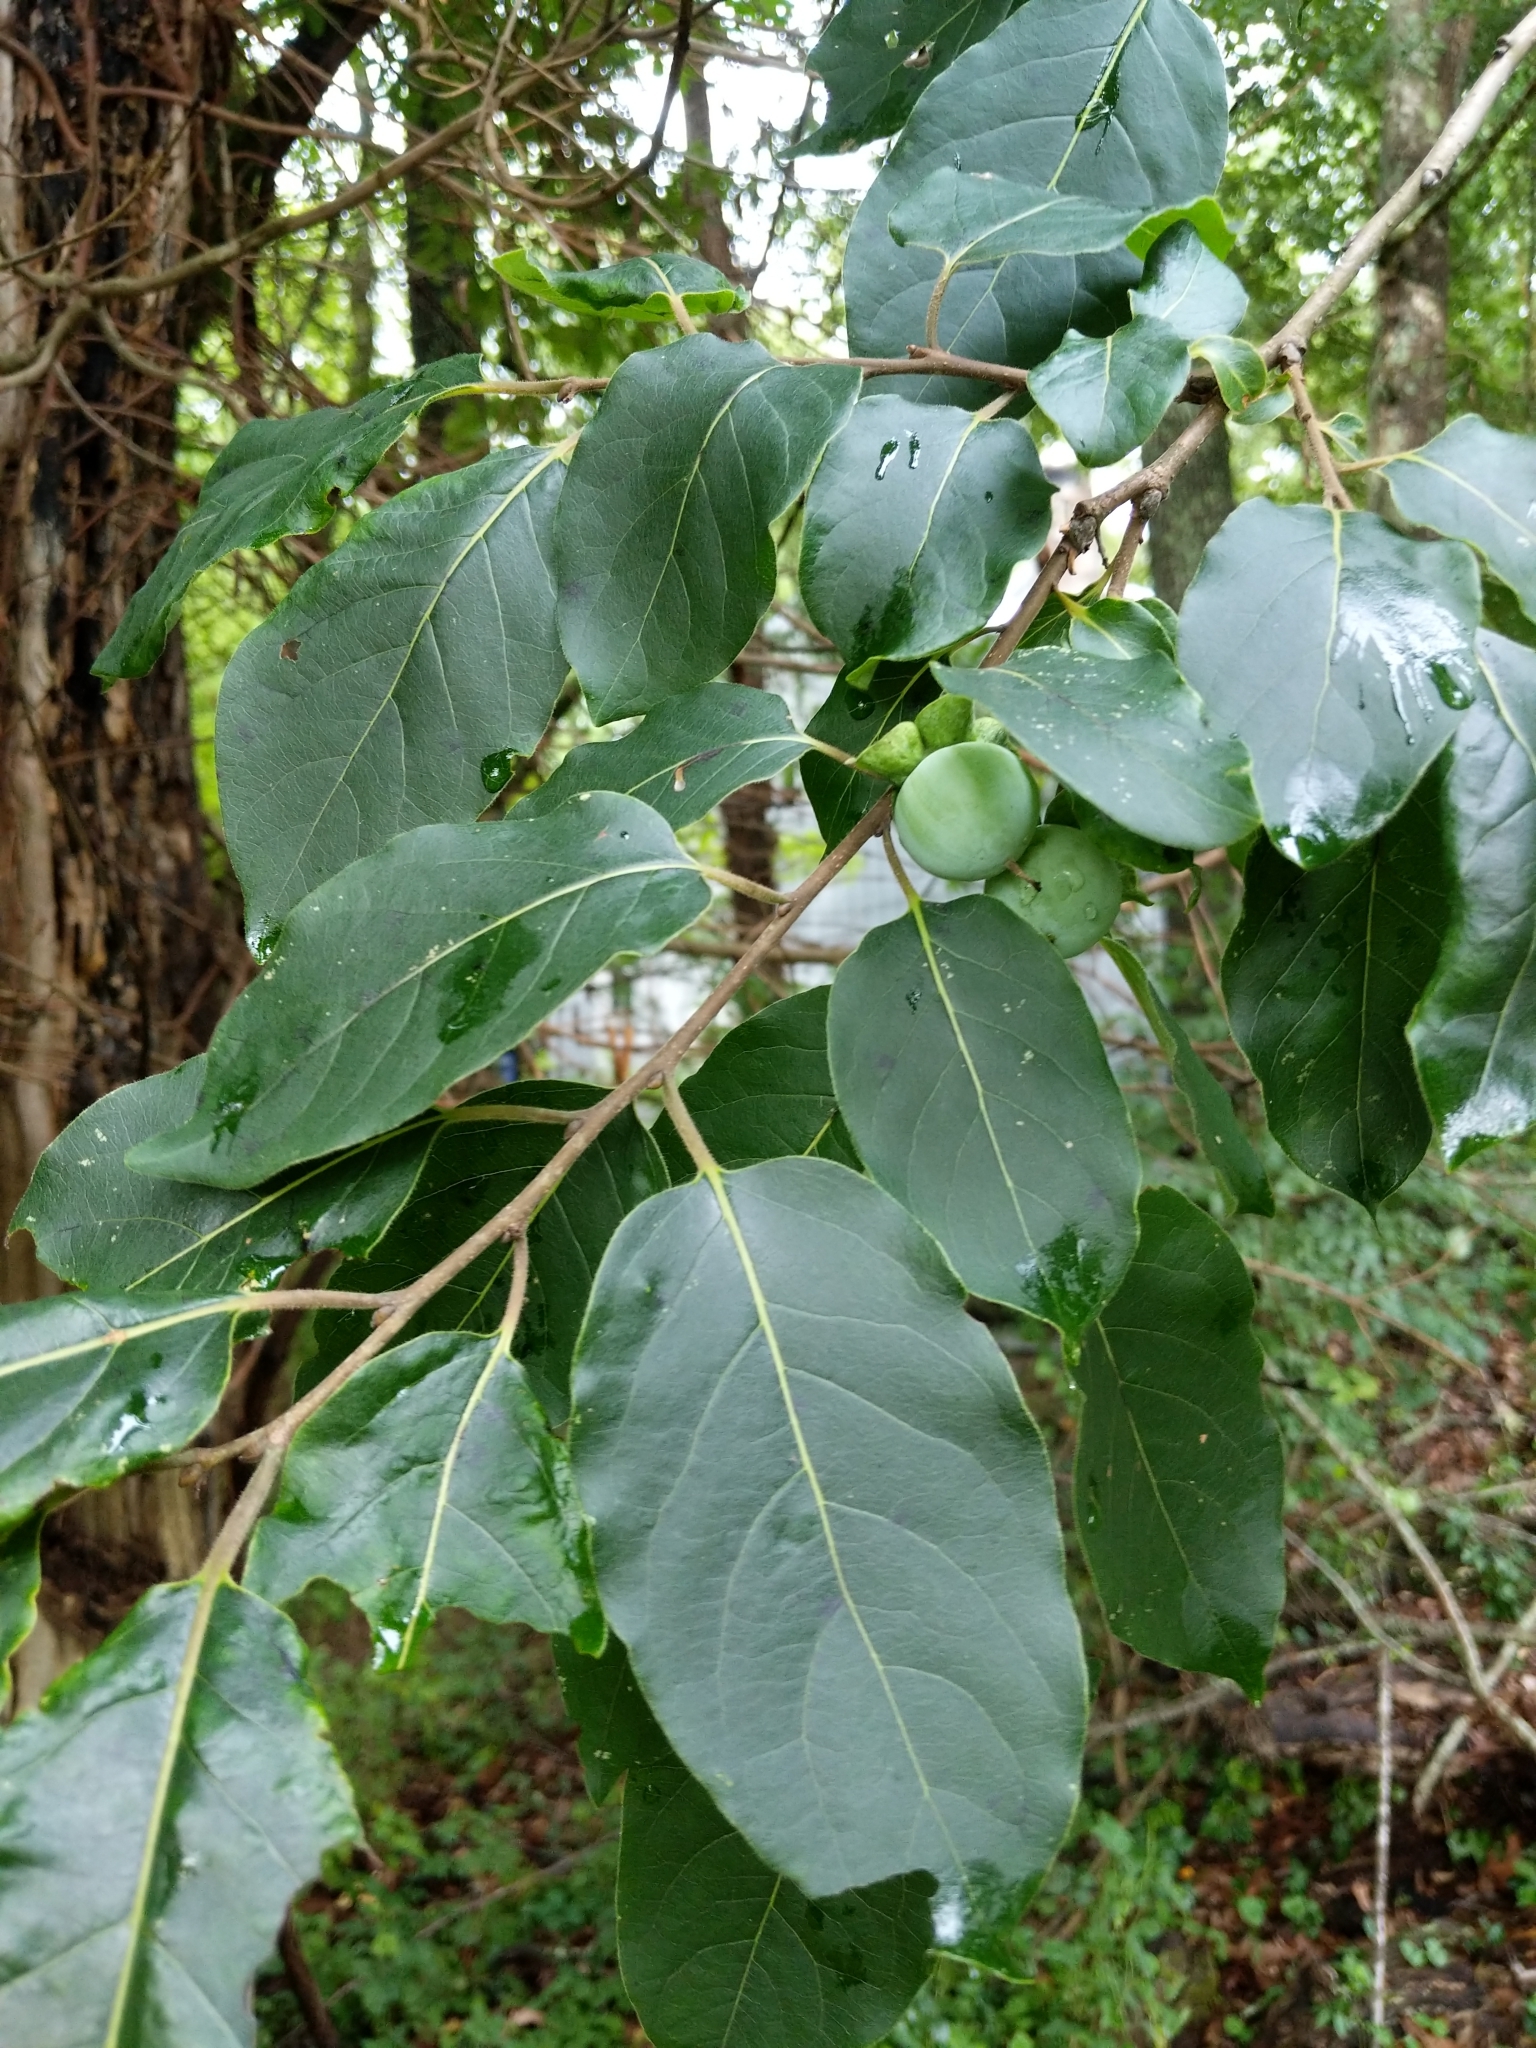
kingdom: Plantae
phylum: Tracheophyta
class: Magnoliopsida
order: Ericales
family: Ebenaceae
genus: Diospyros
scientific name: Diospyros virginiana
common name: Persimmon
